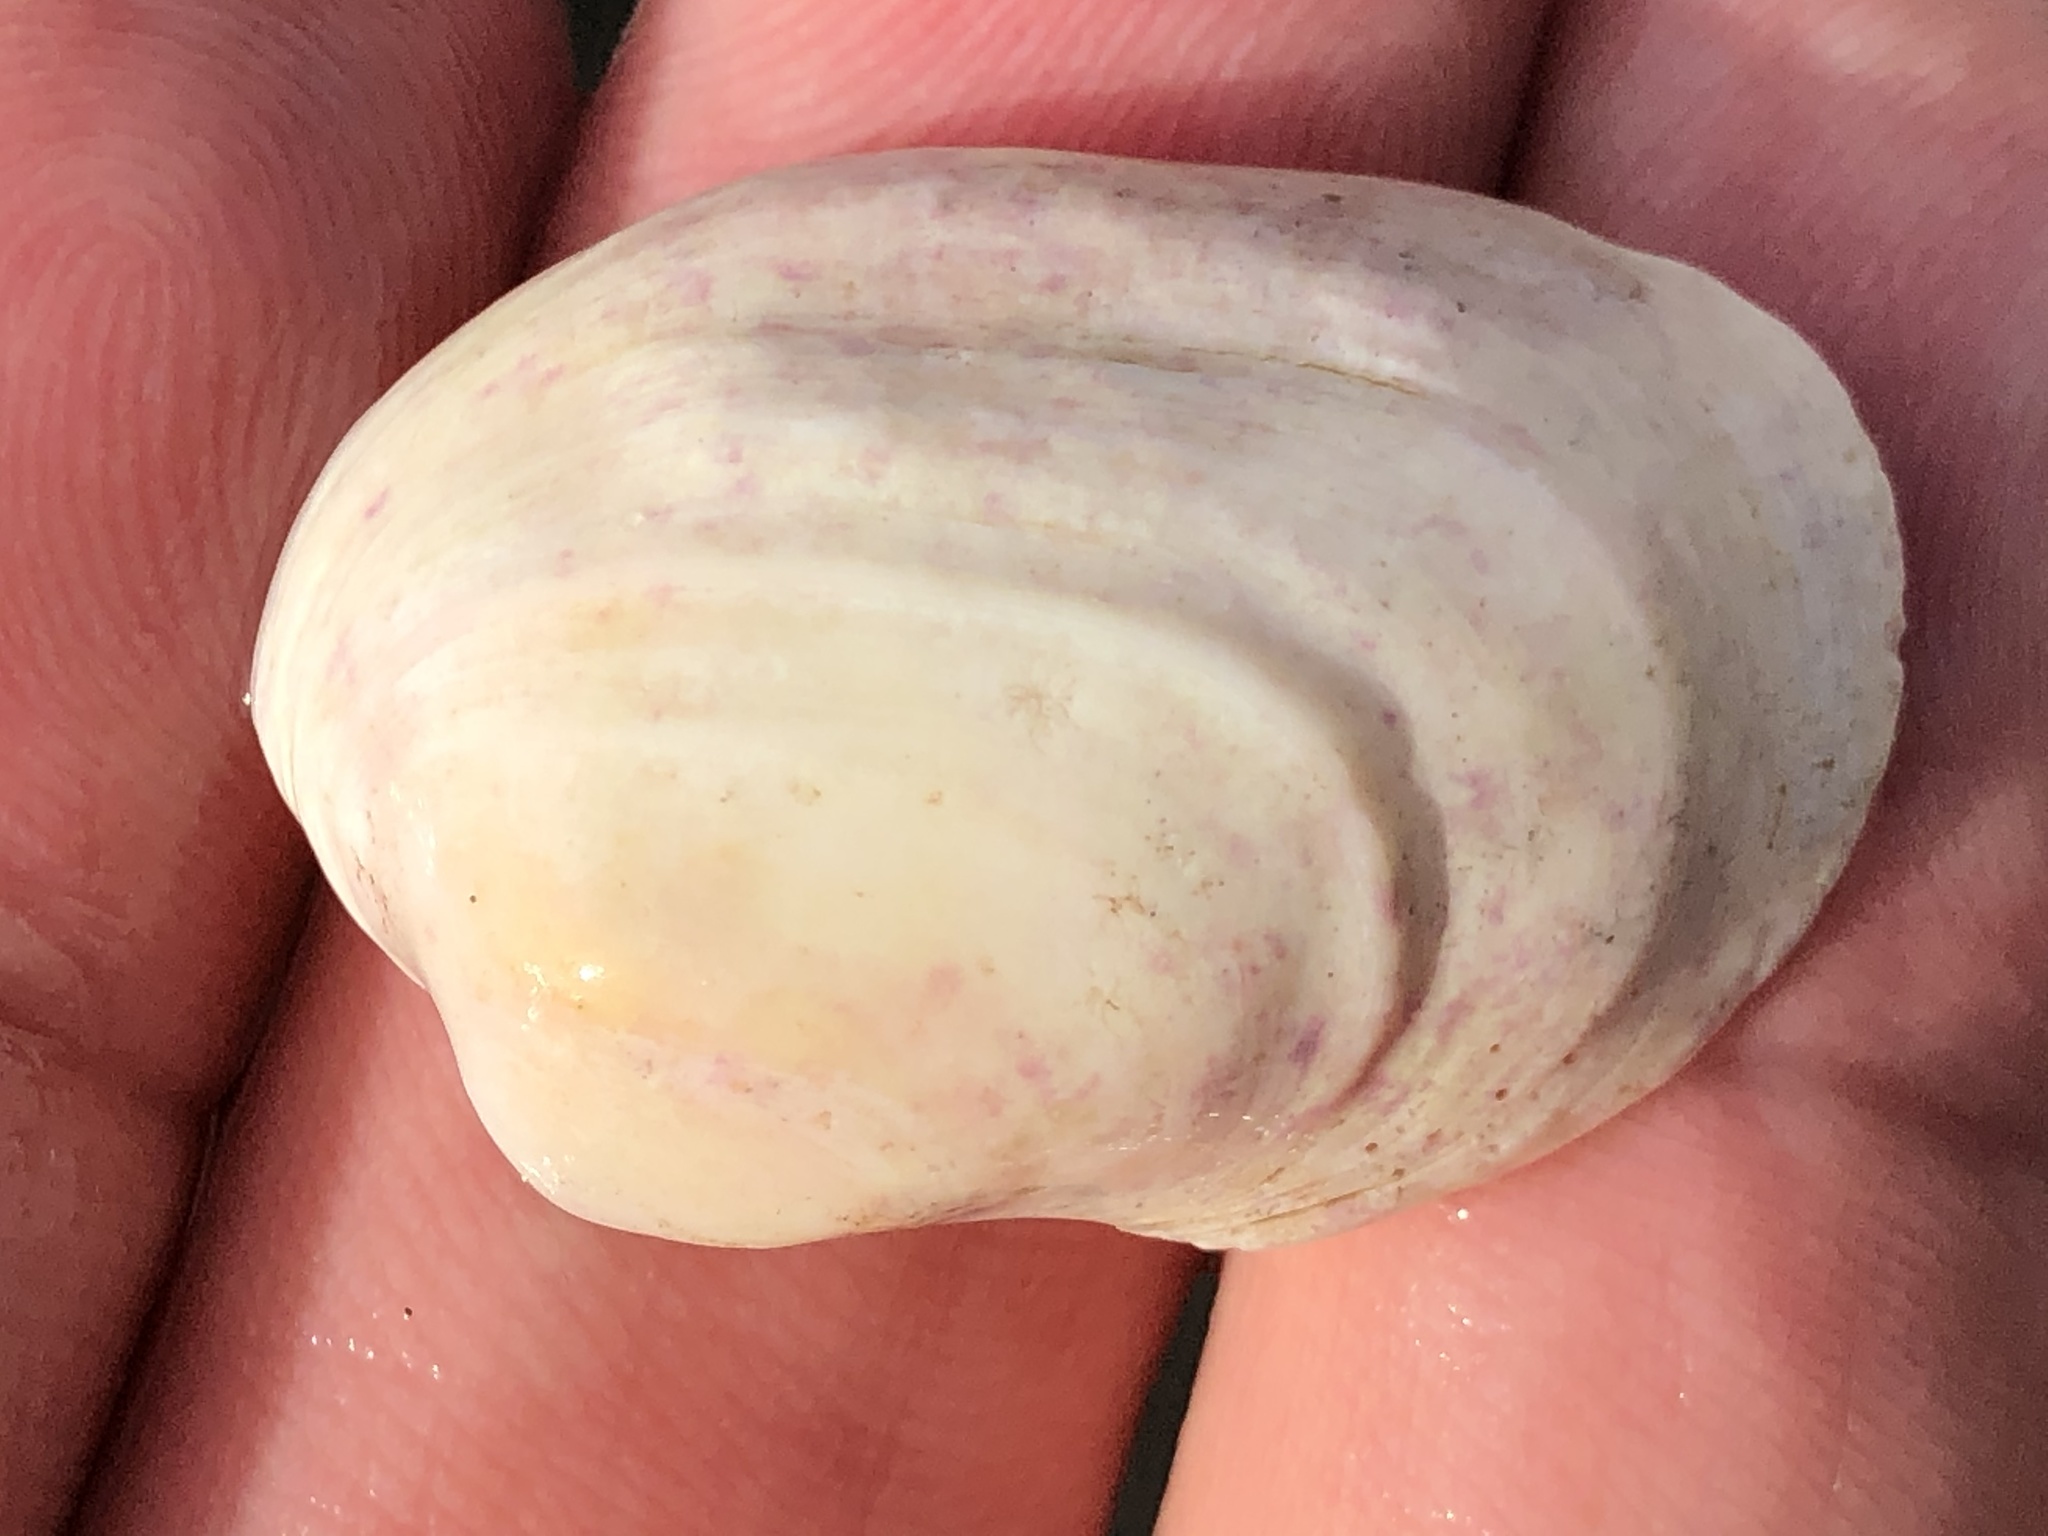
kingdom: Animalia
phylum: Mollusca
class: Bivalvia
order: Venerida
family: Veneridae
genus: Petricola
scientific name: Petricola carditoides
